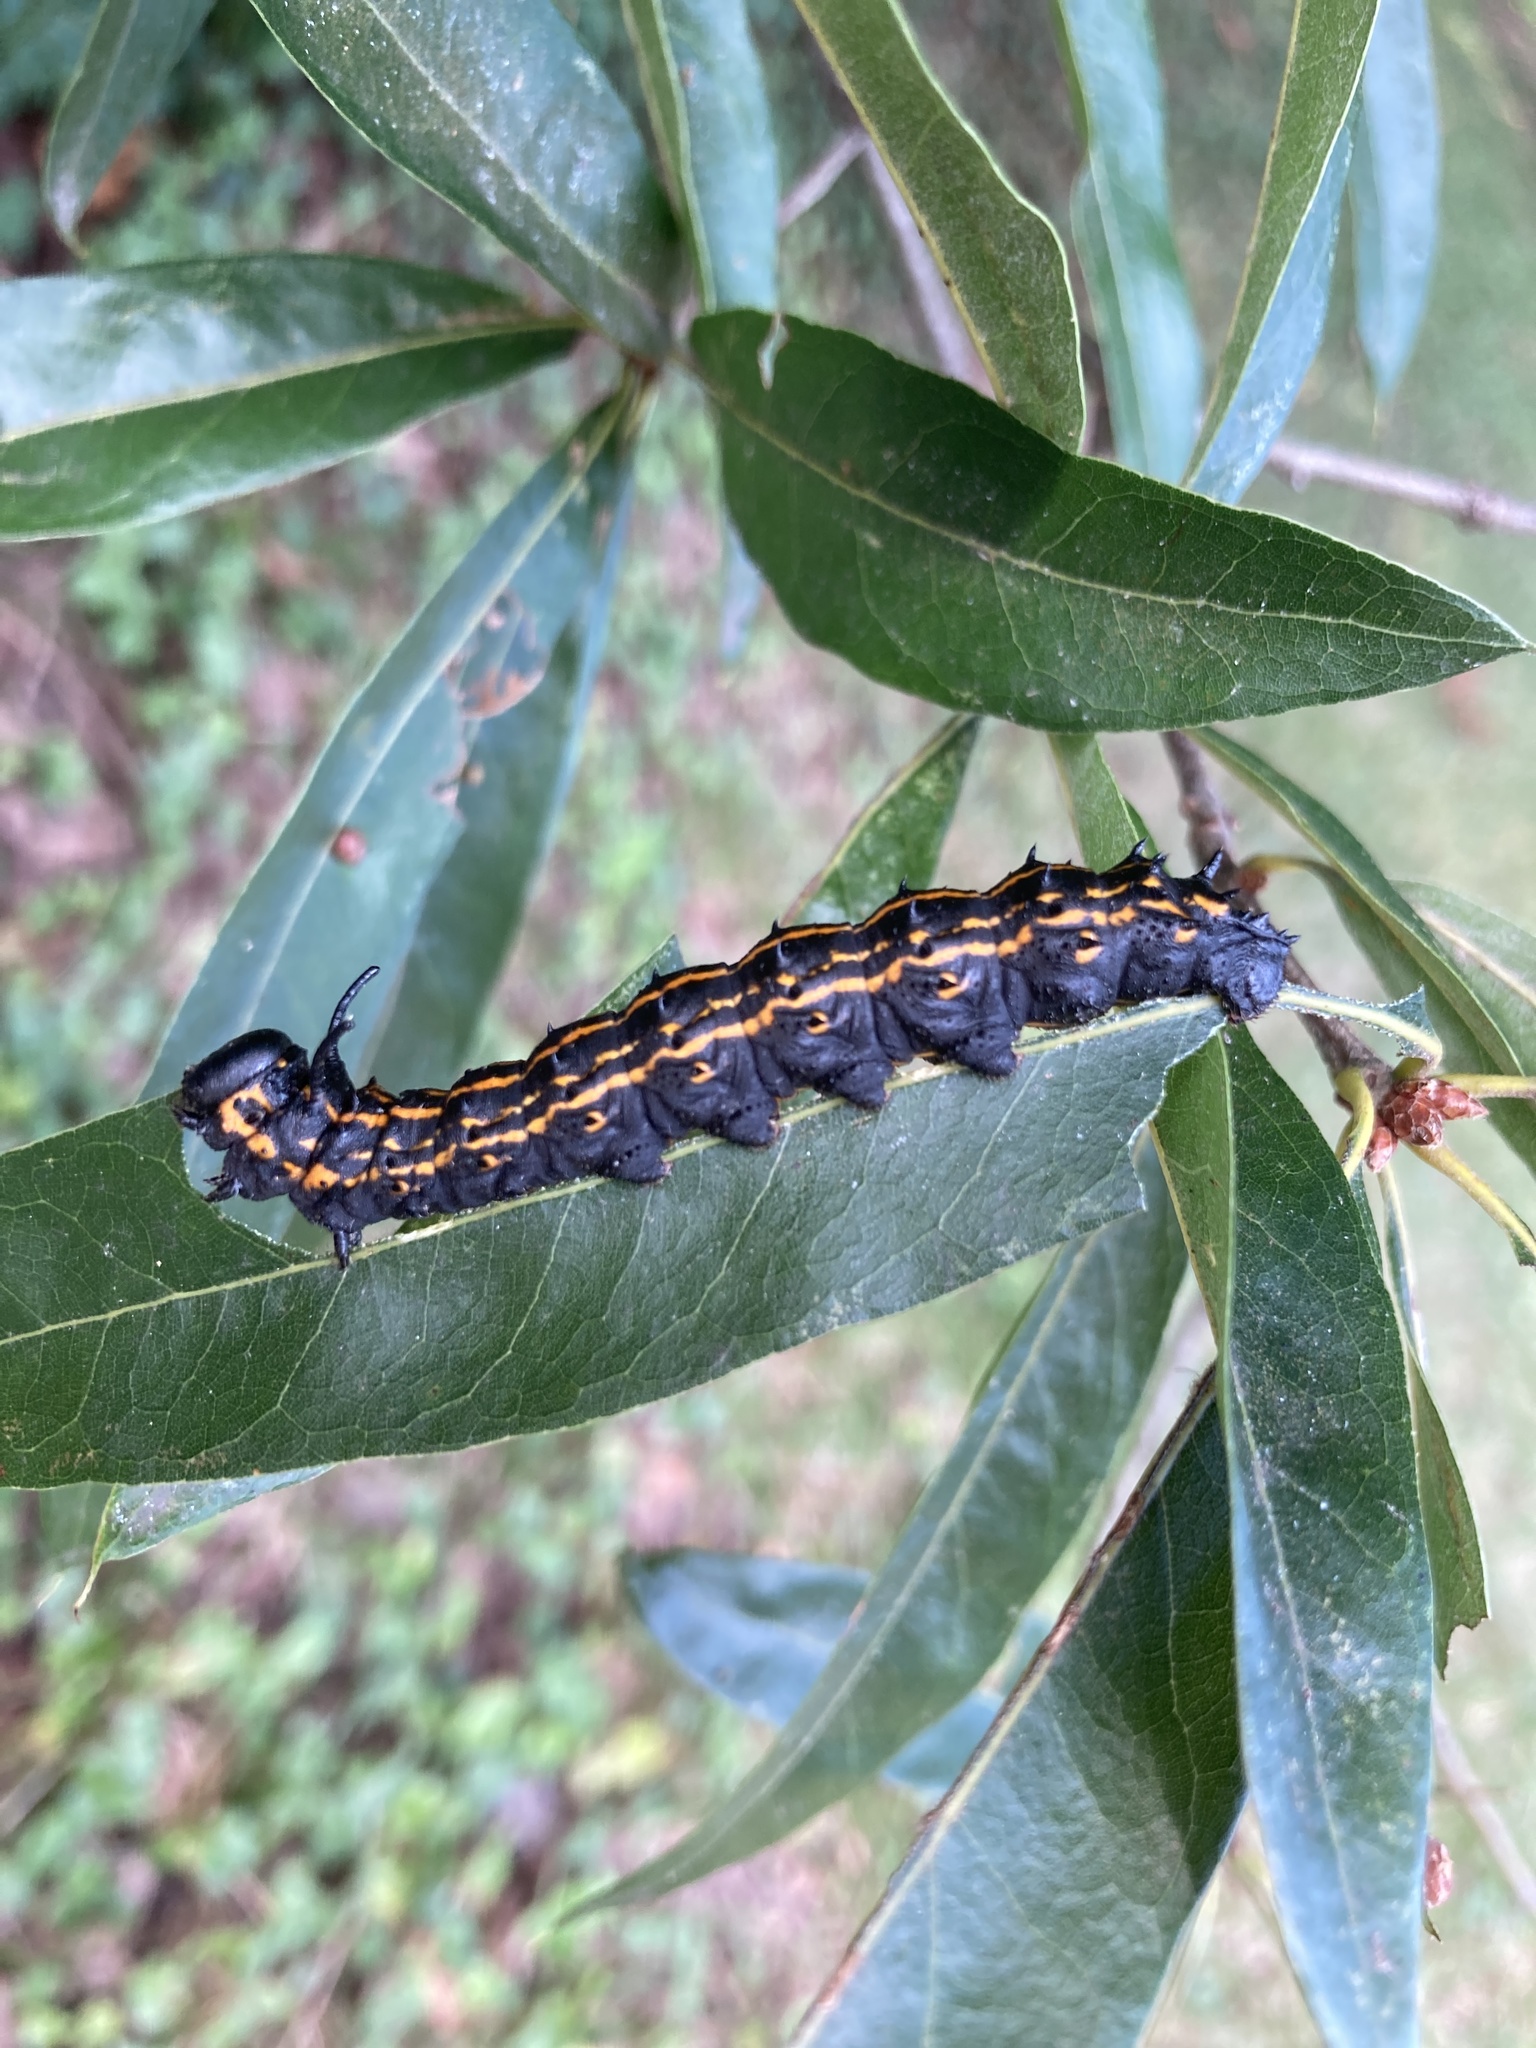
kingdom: Animalia
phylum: Arthropoda
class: Insecta
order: Lepidoptera
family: Saturniidae
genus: Anisota
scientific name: Anisota senatoria
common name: Orange-striped oakworm moth
